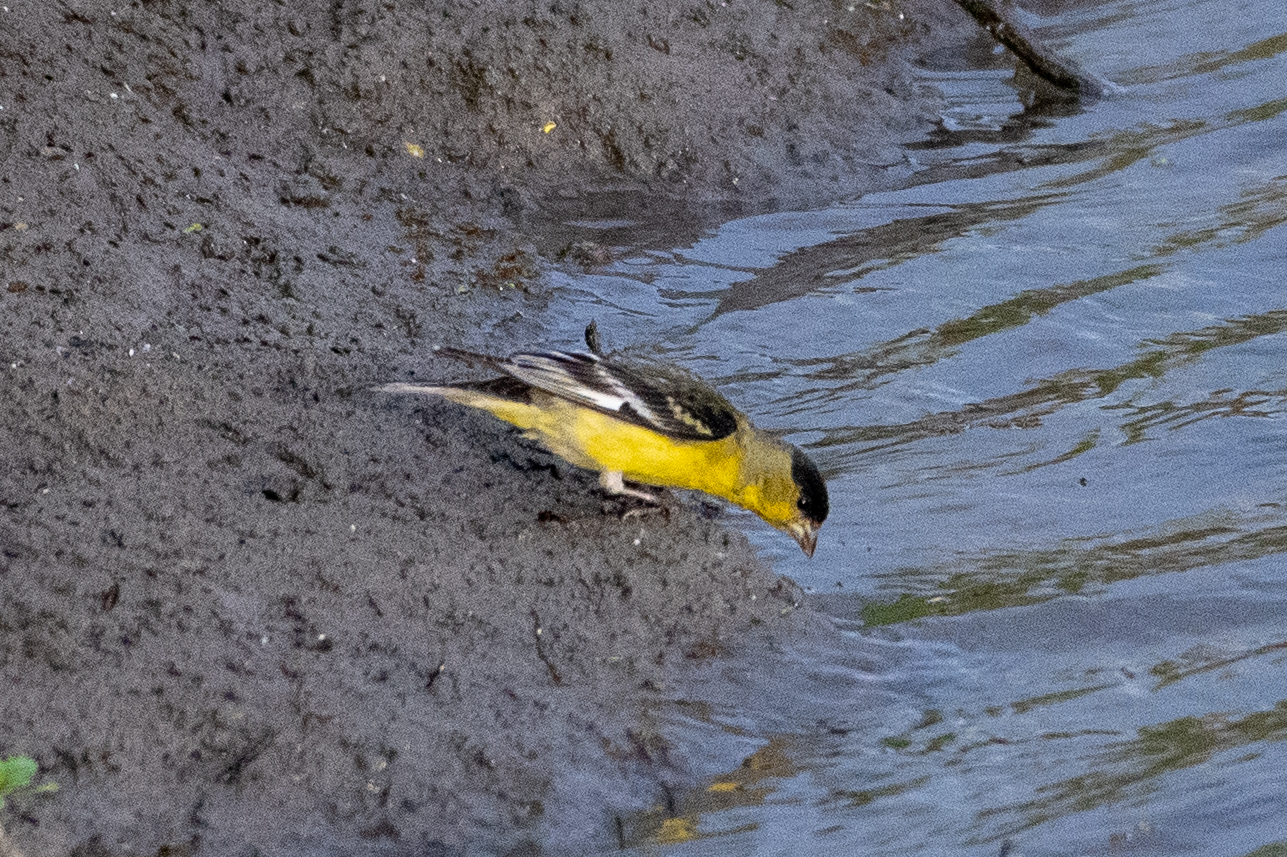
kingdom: Animalia
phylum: Chordata
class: Aves
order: Passeriformes
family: Fringillidae
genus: Spinus
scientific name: Spinus psaltria
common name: Lesser goldfinch
